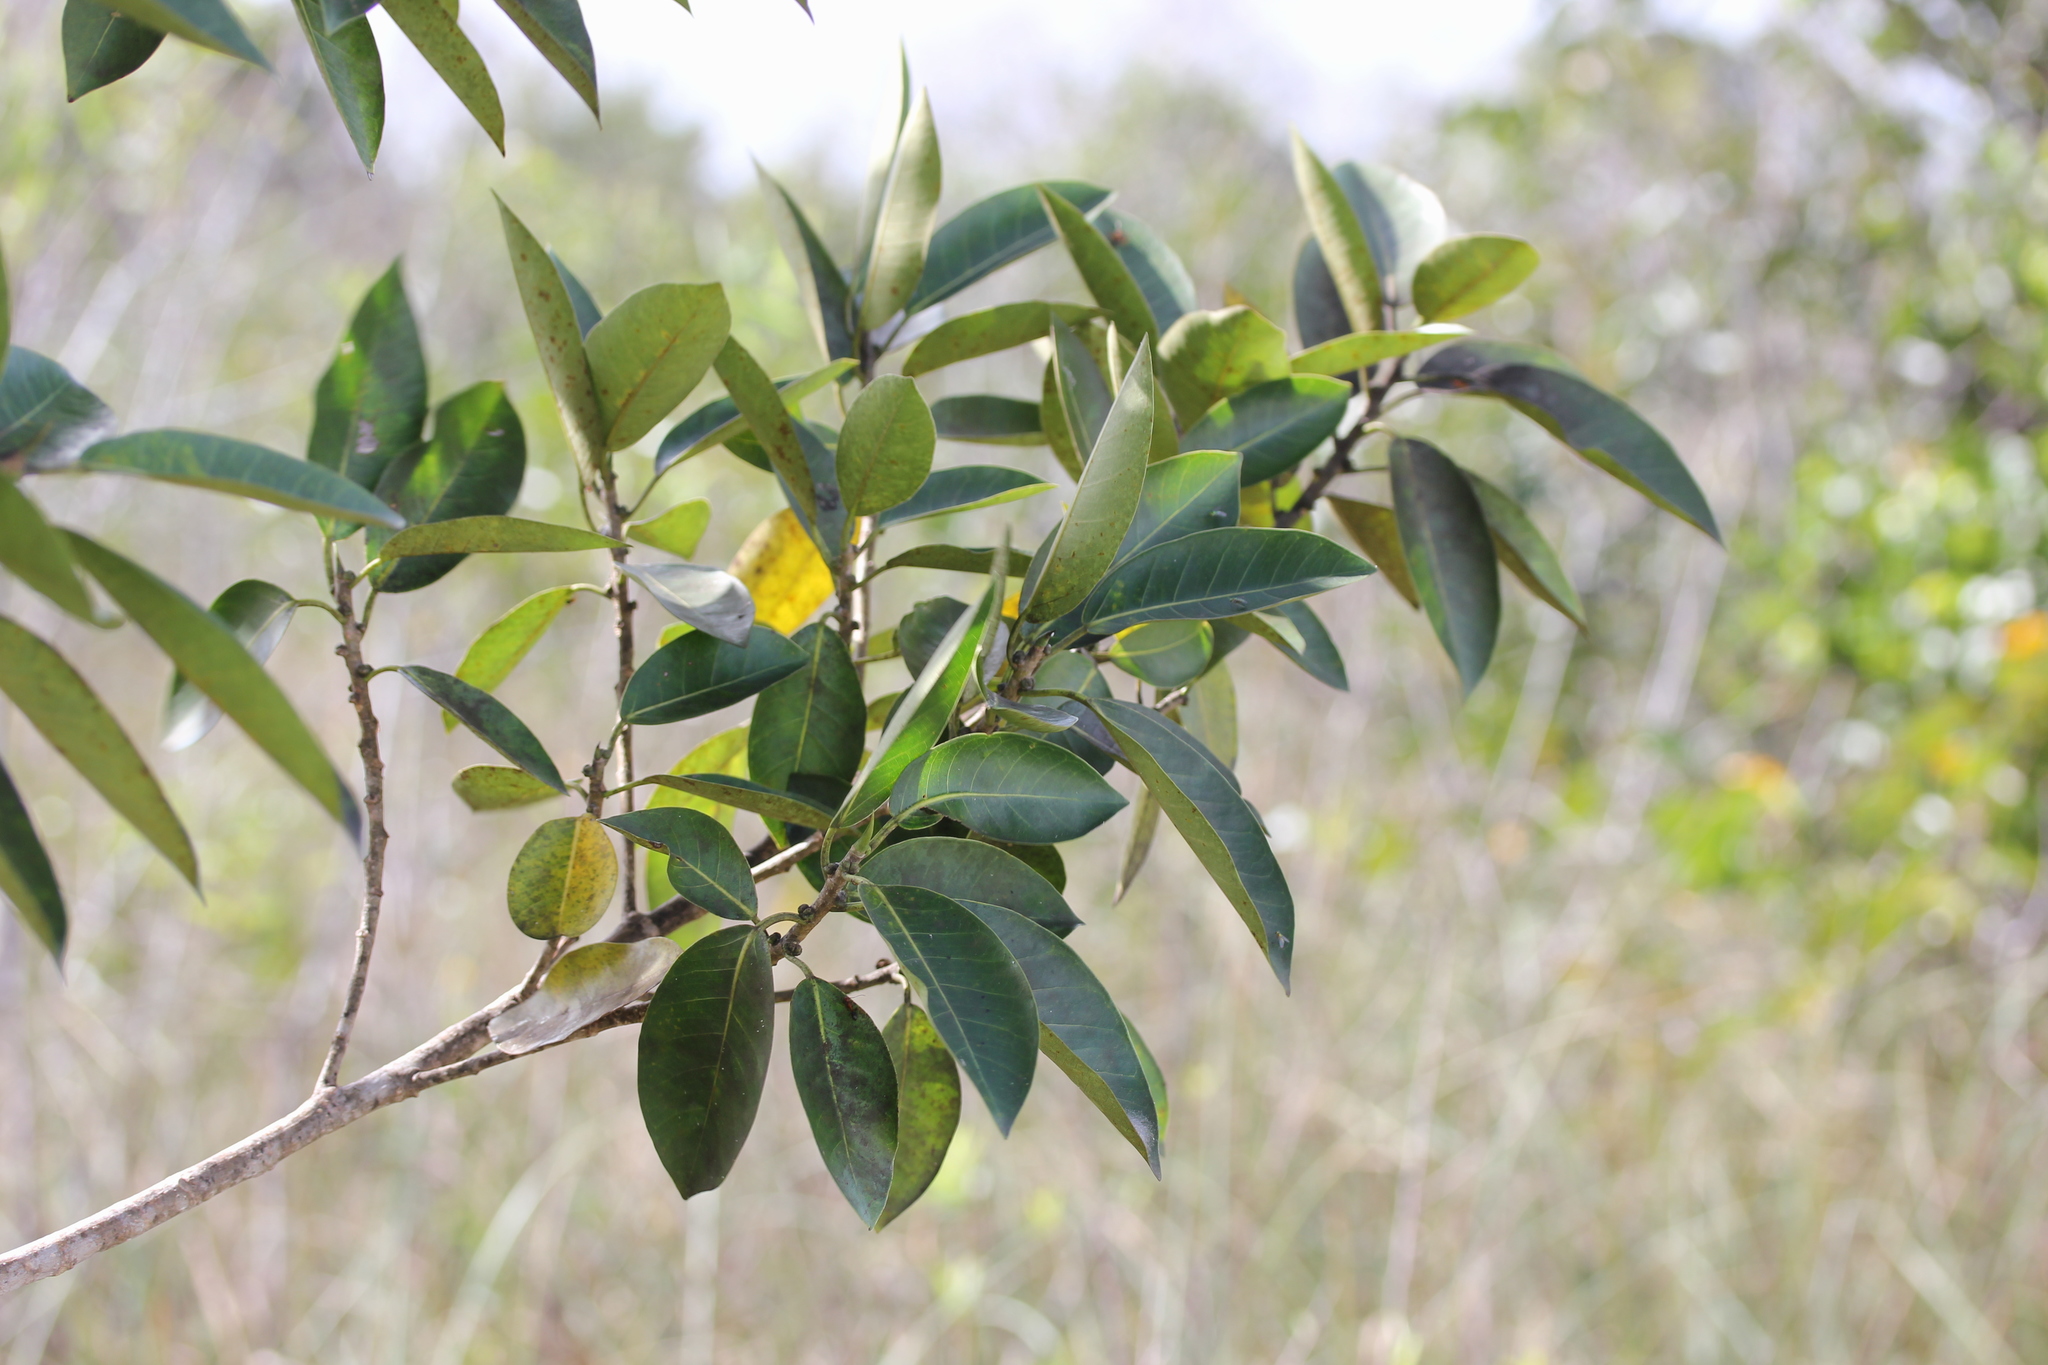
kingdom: Plantae
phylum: Tracheophyta
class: Magnoliopsida
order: Rosales
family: Moraceae
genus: Ficus
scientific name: Ficus aurea
